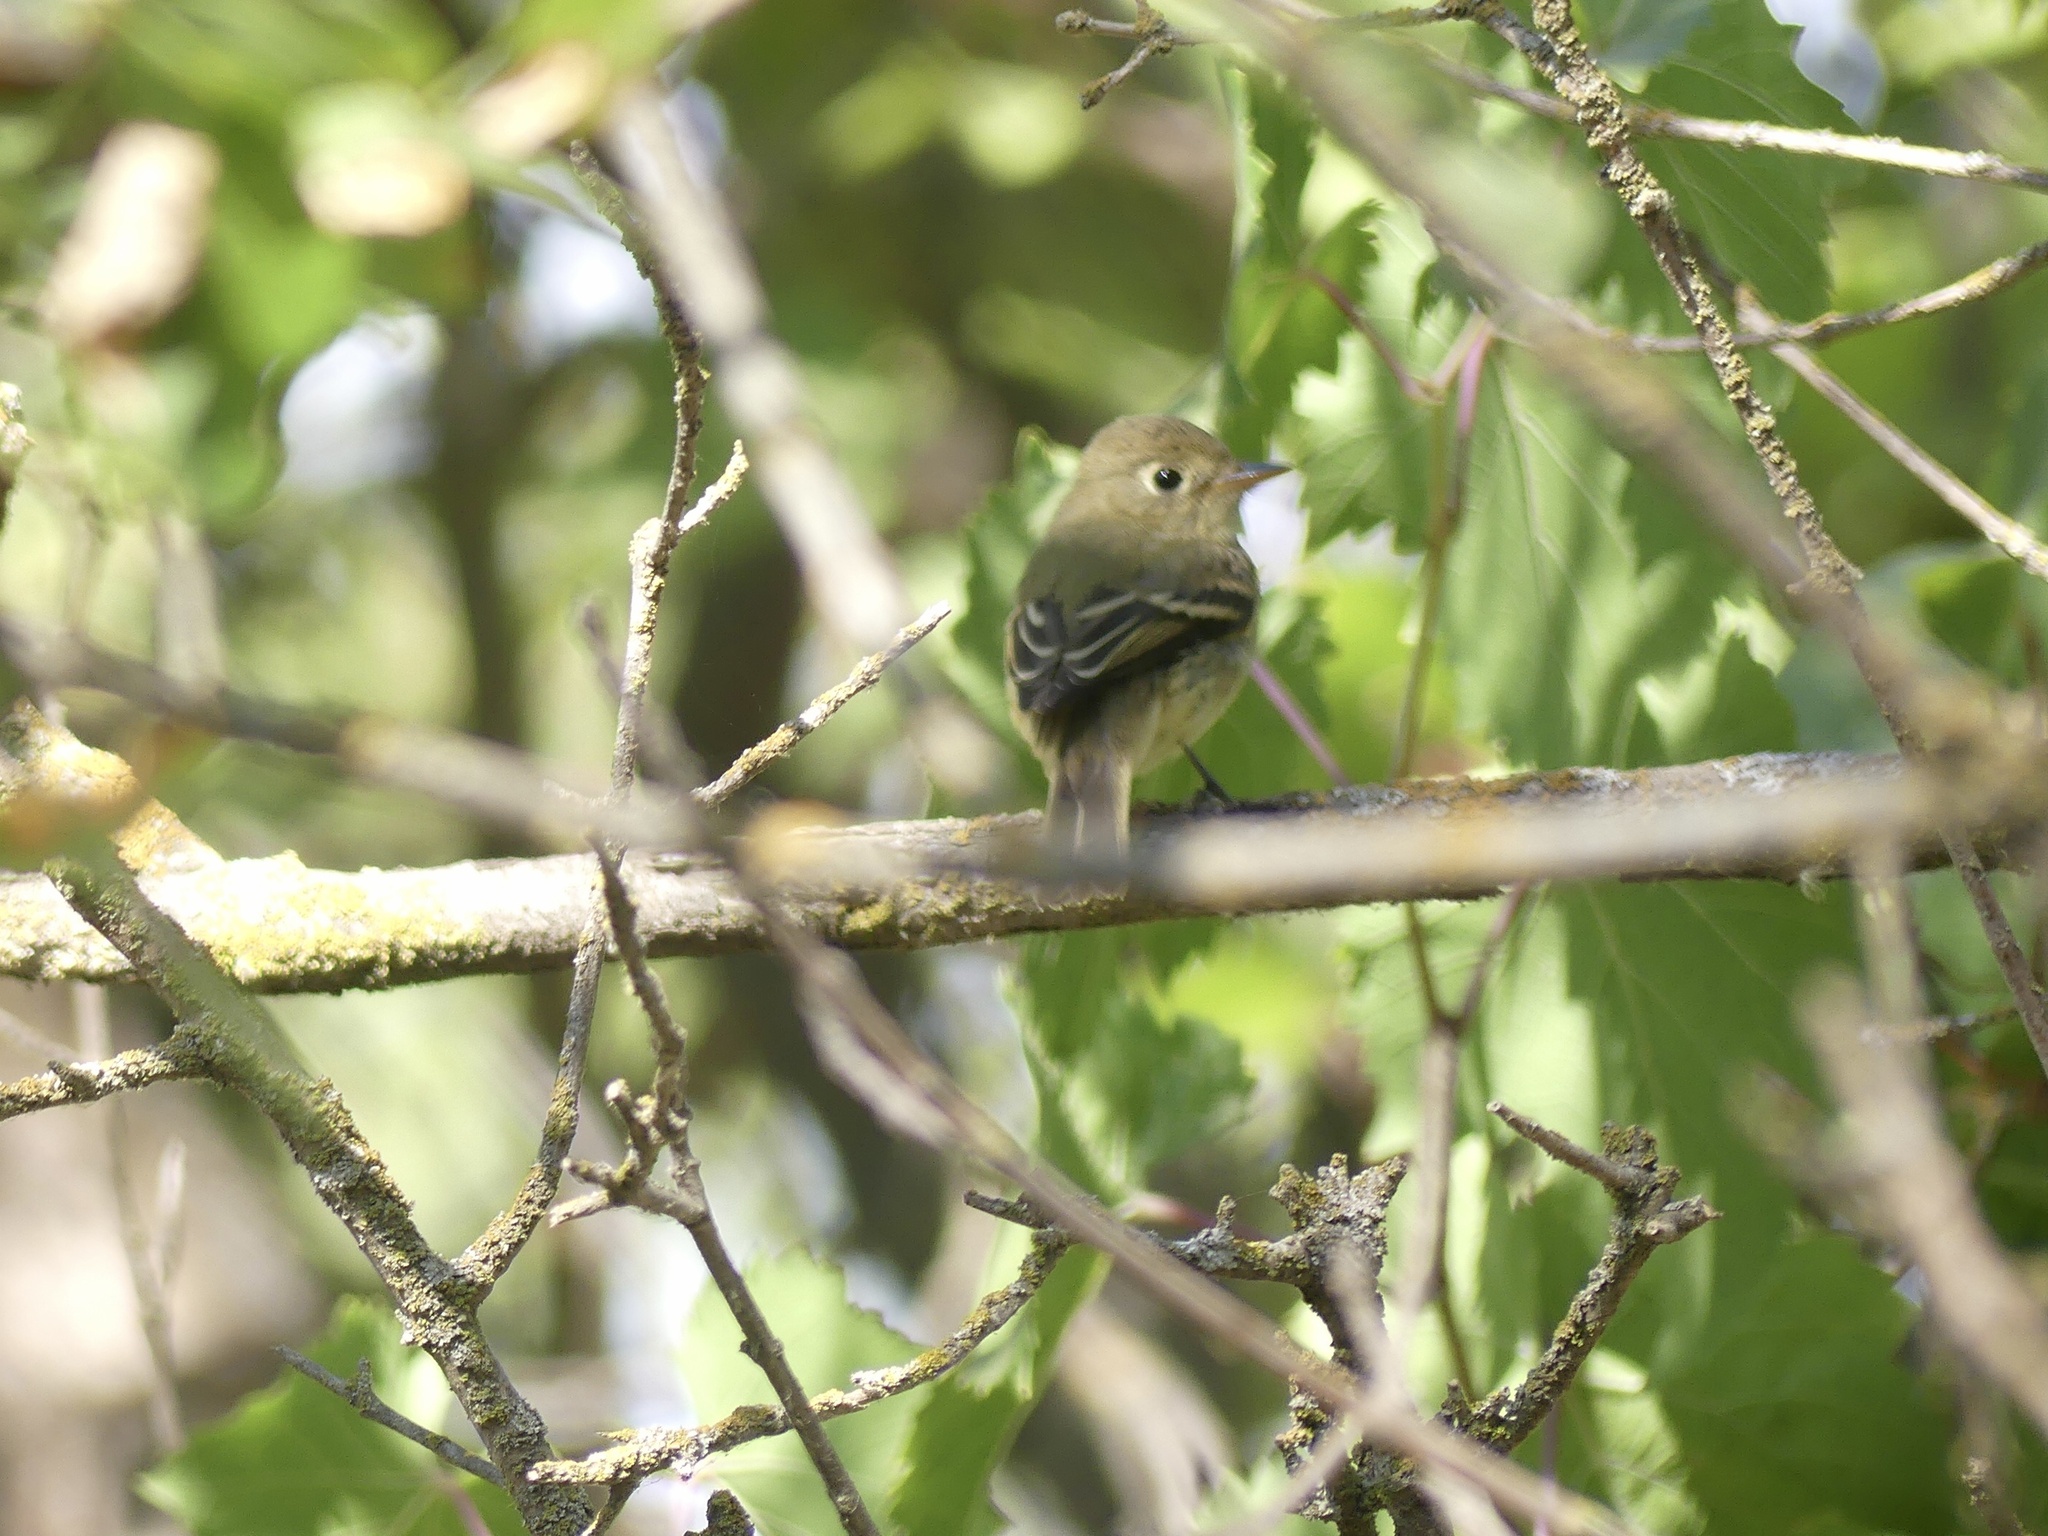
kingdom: Animalia
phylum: Chordata
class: Aves
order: Passeriformes
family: Tyrannidae
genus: Empidonax
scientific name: Empidonax difficilis
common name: Pacific-slope flycatcher
